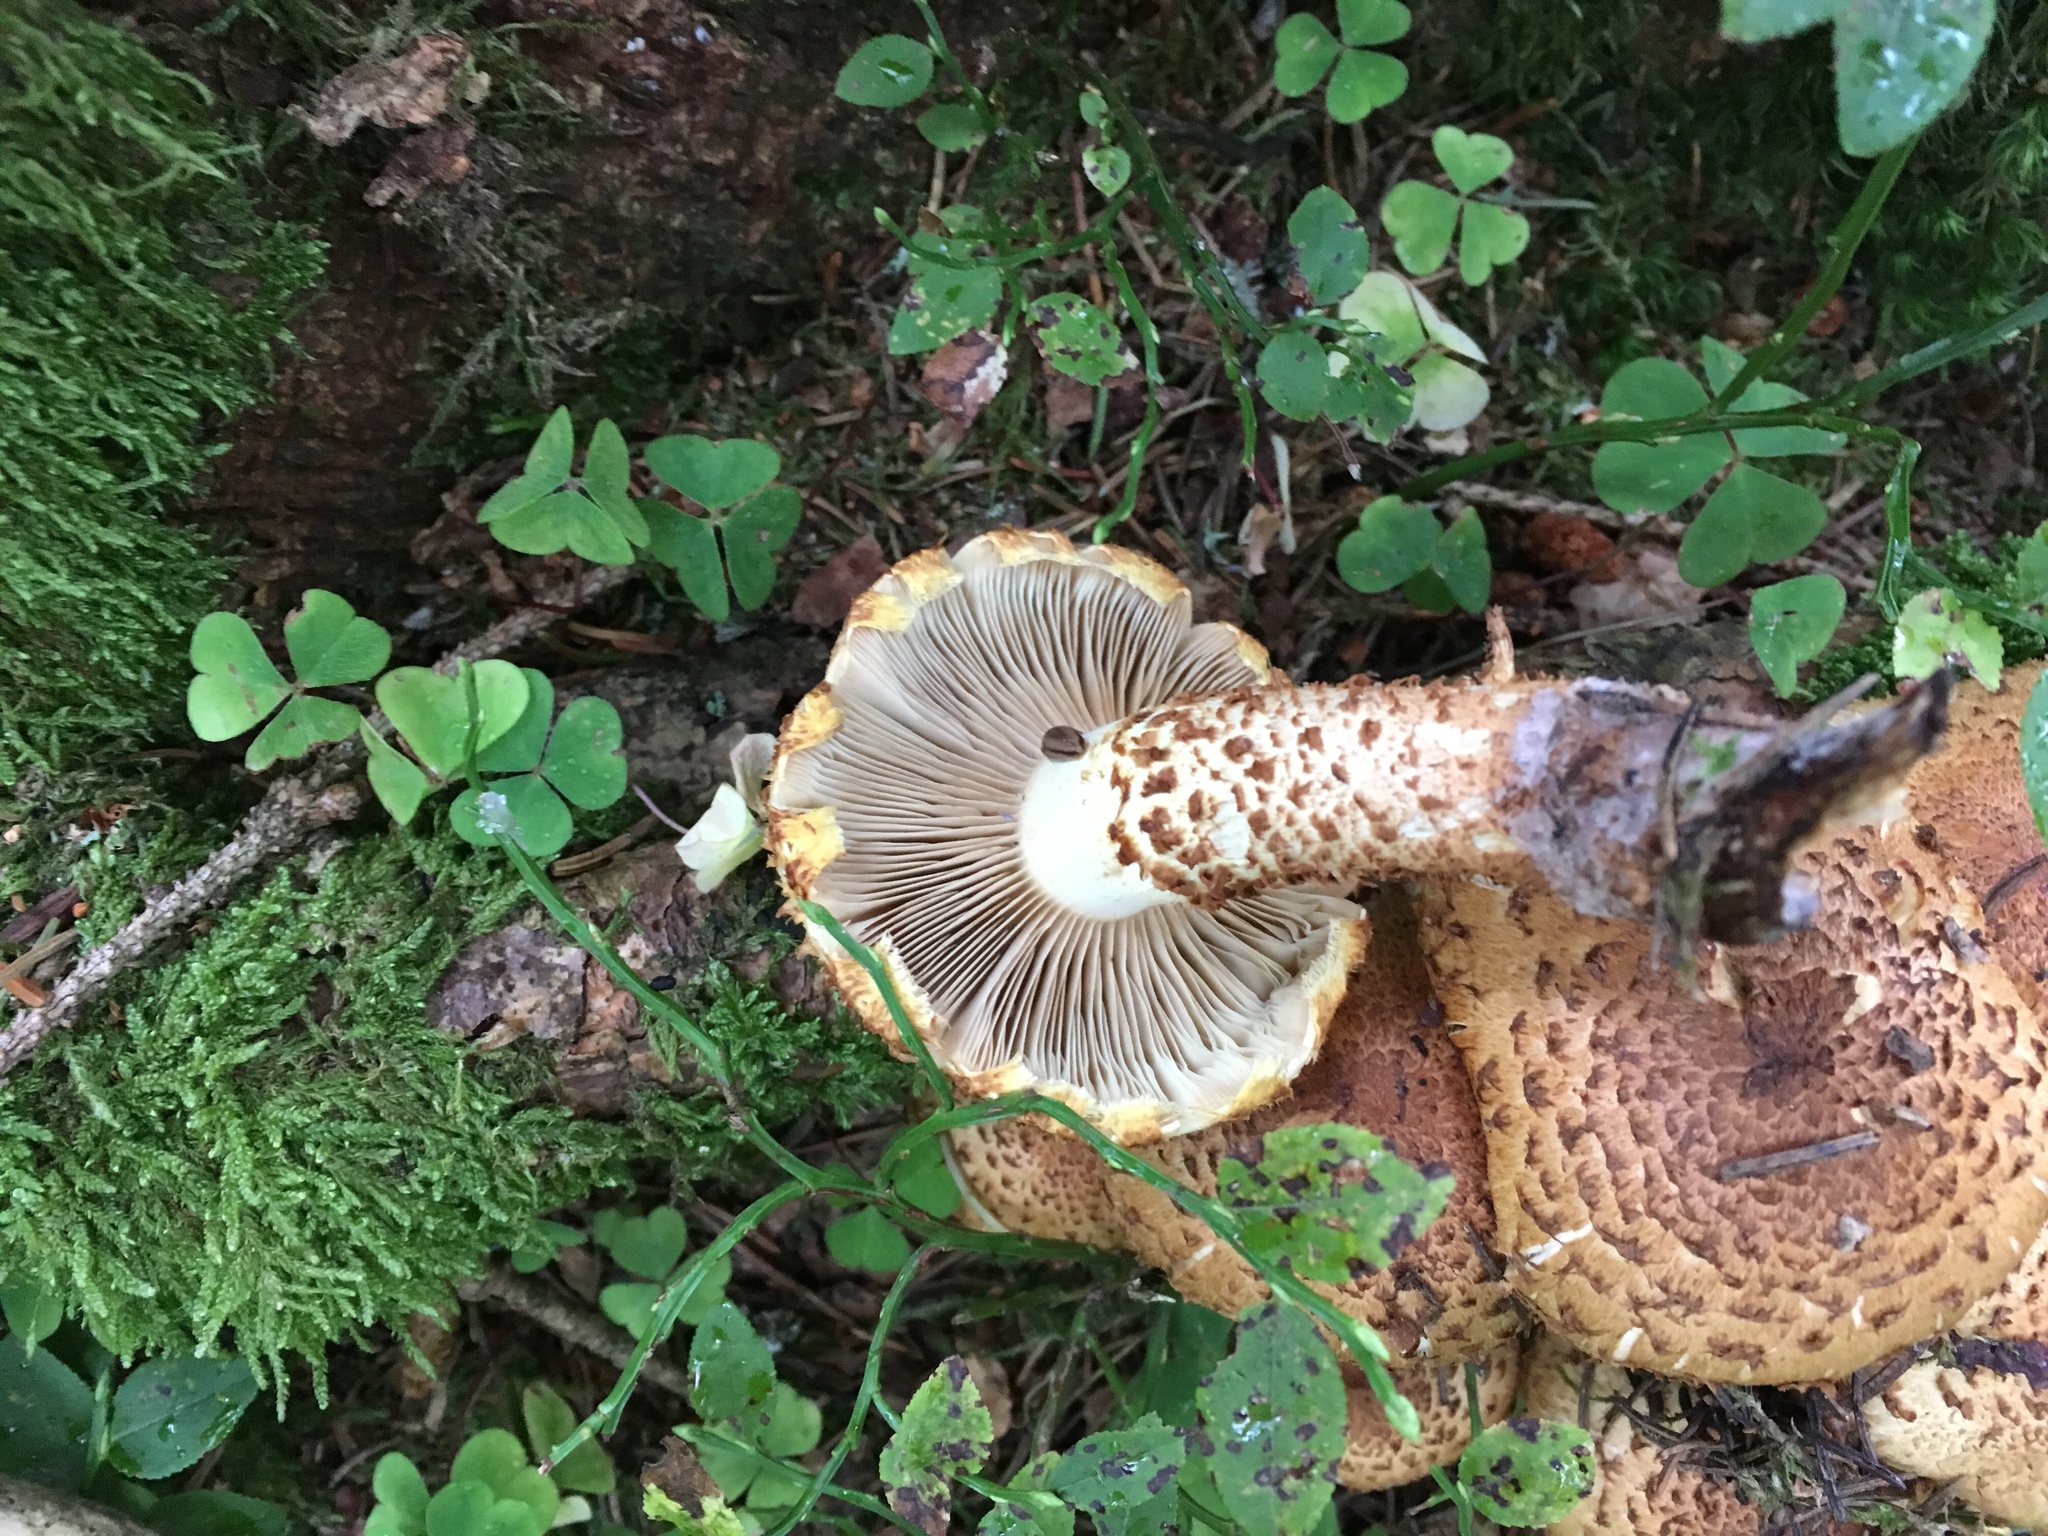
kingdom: Fungi
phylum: Basidiomycota
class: Agaricomycetes
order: Agaricales
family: Strophariaceae
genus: Pholiota
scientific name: Pholiota squarrosa
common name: Shaggy pholiota
